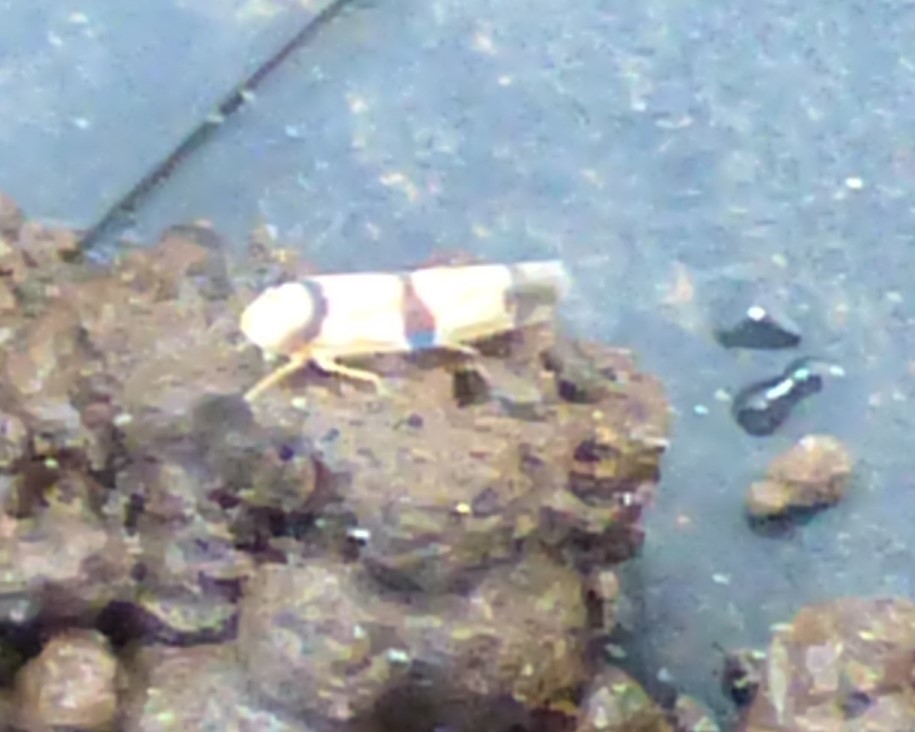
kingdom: Animalia
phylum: Arthropoda
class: Insecta
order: Hemiptera
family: Cicadellidae
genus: Erythroneura
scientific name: Erythroneura calycula
